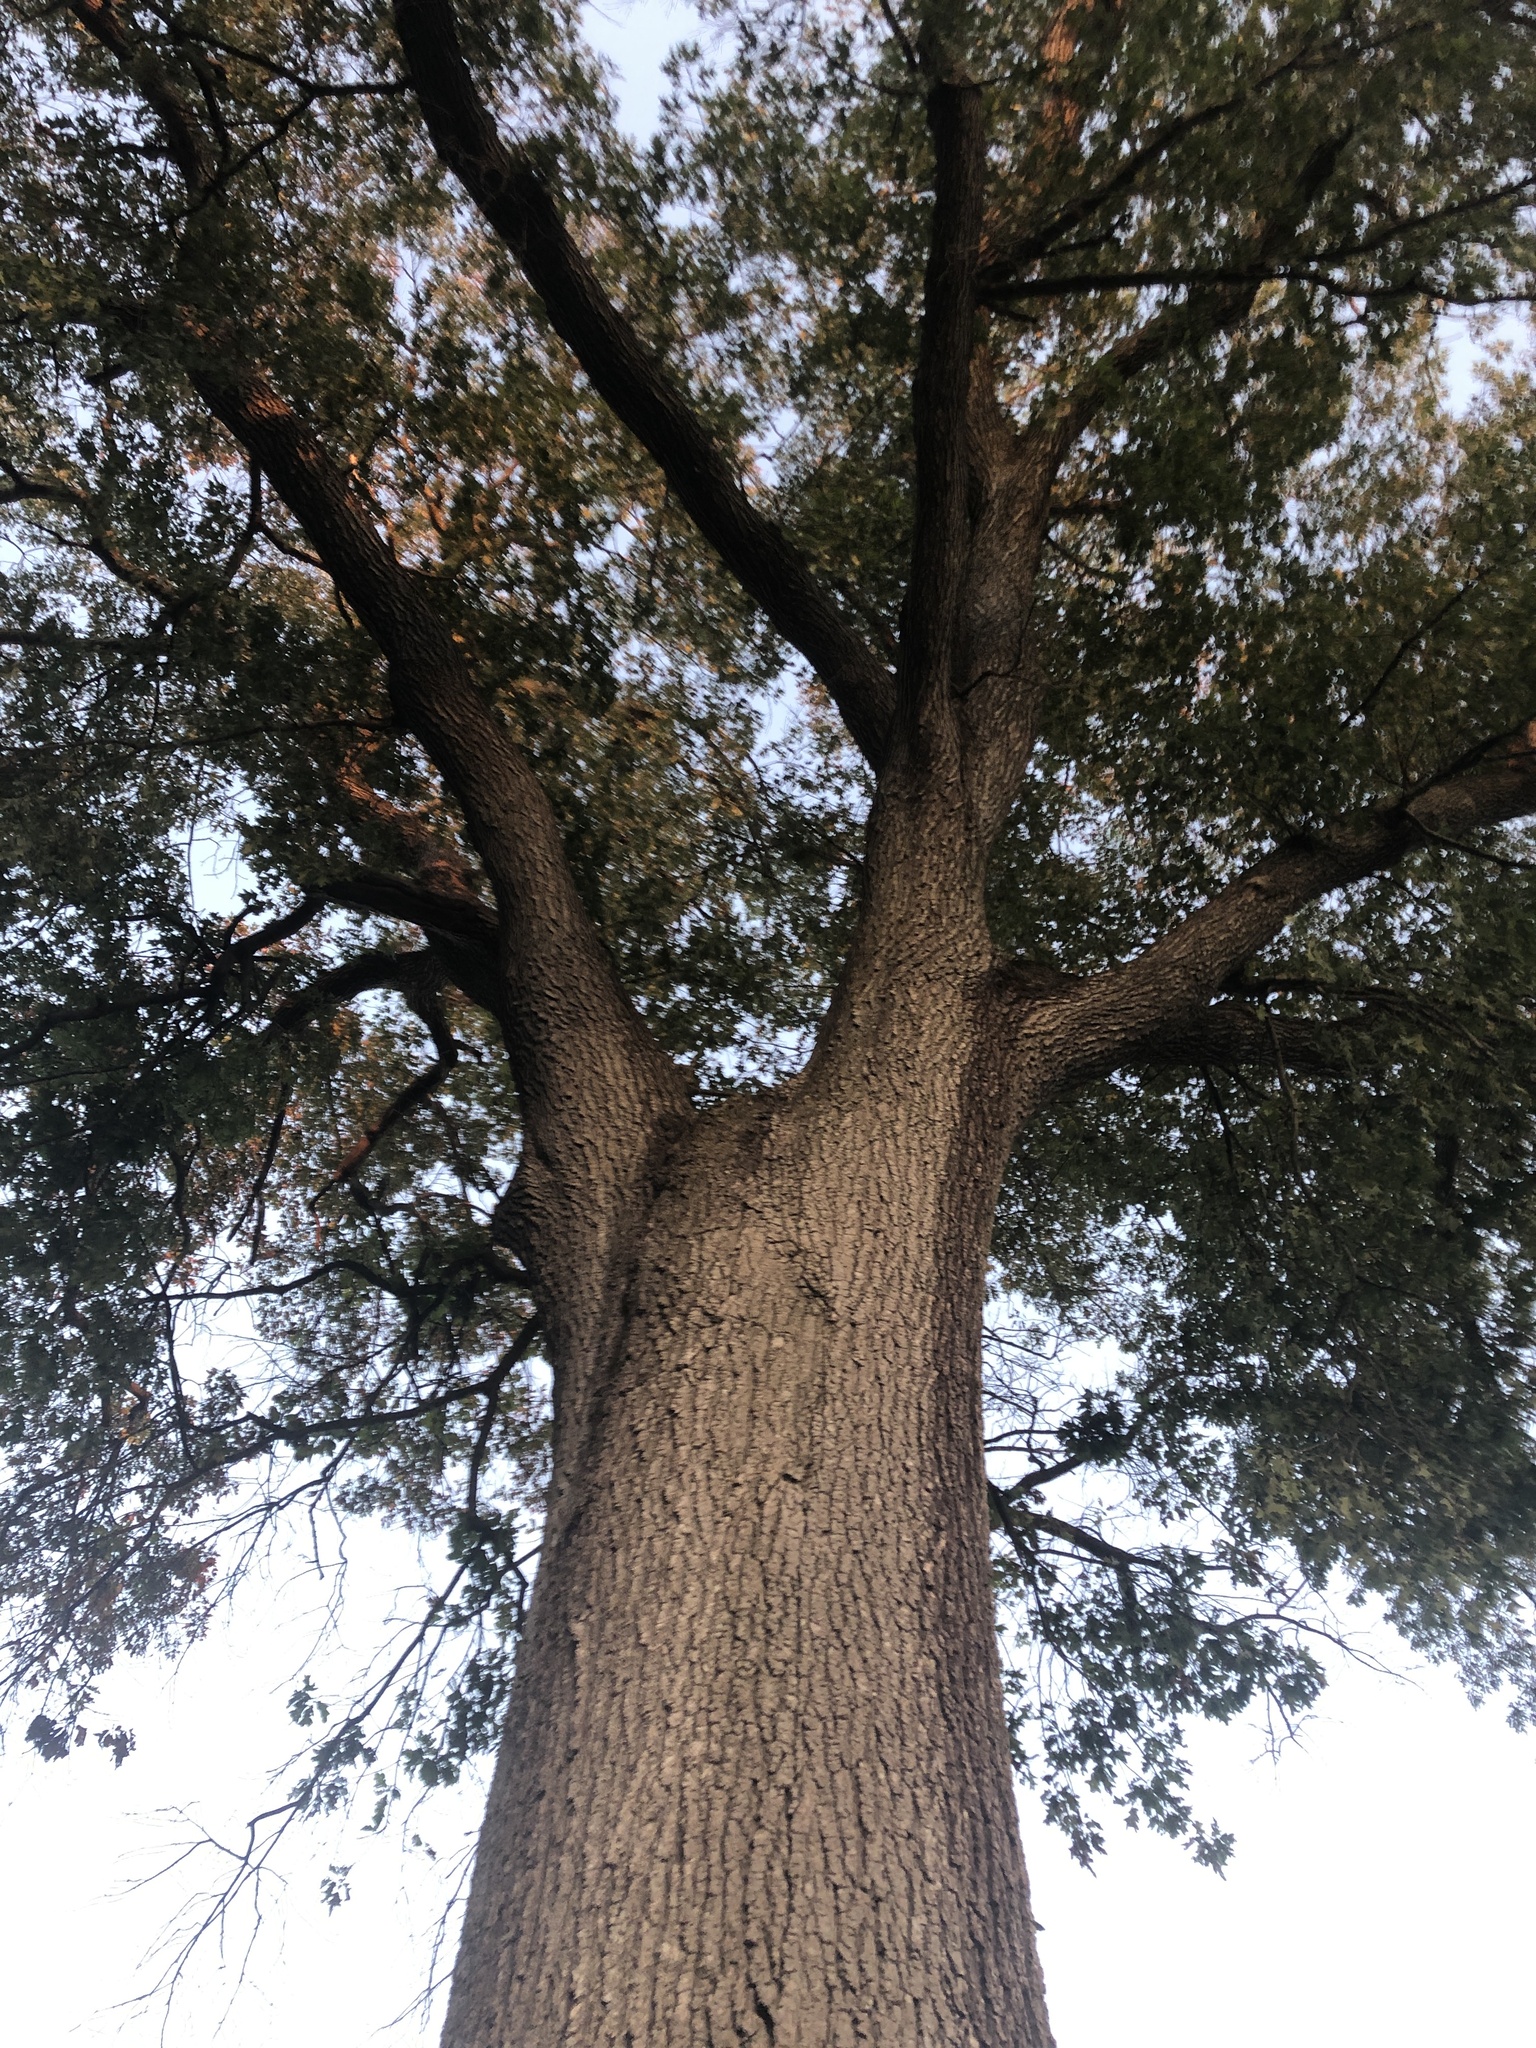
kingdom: Plantae
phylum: Tracheophyta
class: Magnoliopsida
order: Fagales
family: Fagaceae
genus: Quercus
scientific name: Quercus velutina
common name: Black oak
